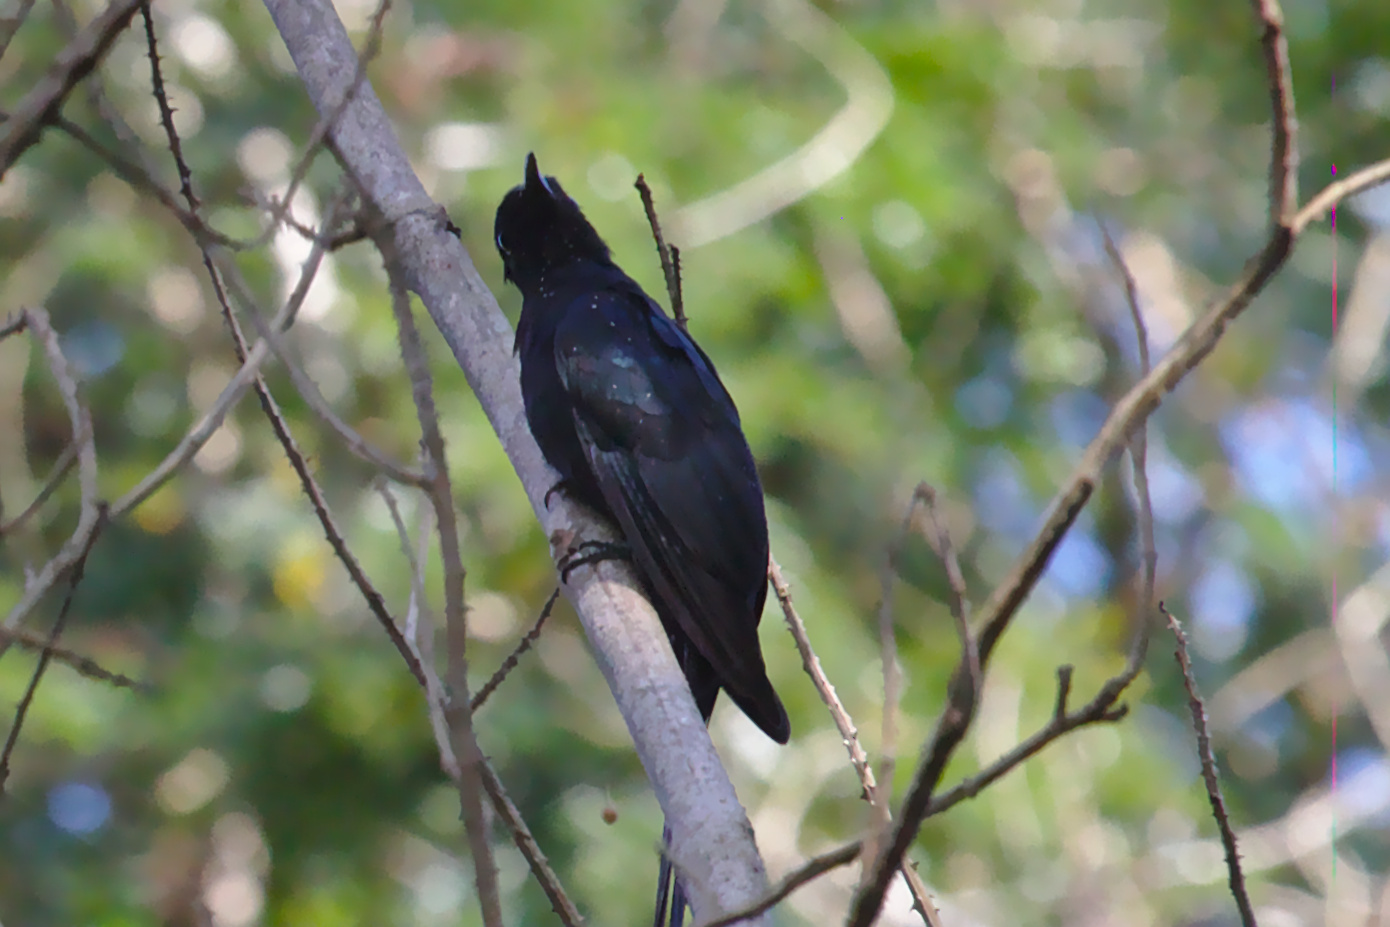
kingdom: Animalia
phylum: Chordata
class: Aves
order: Cuculiformes
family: Cuculidae
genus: Surniculus
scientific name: Surniculus lugubris
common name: Square-tailed drongo-cuckoo
